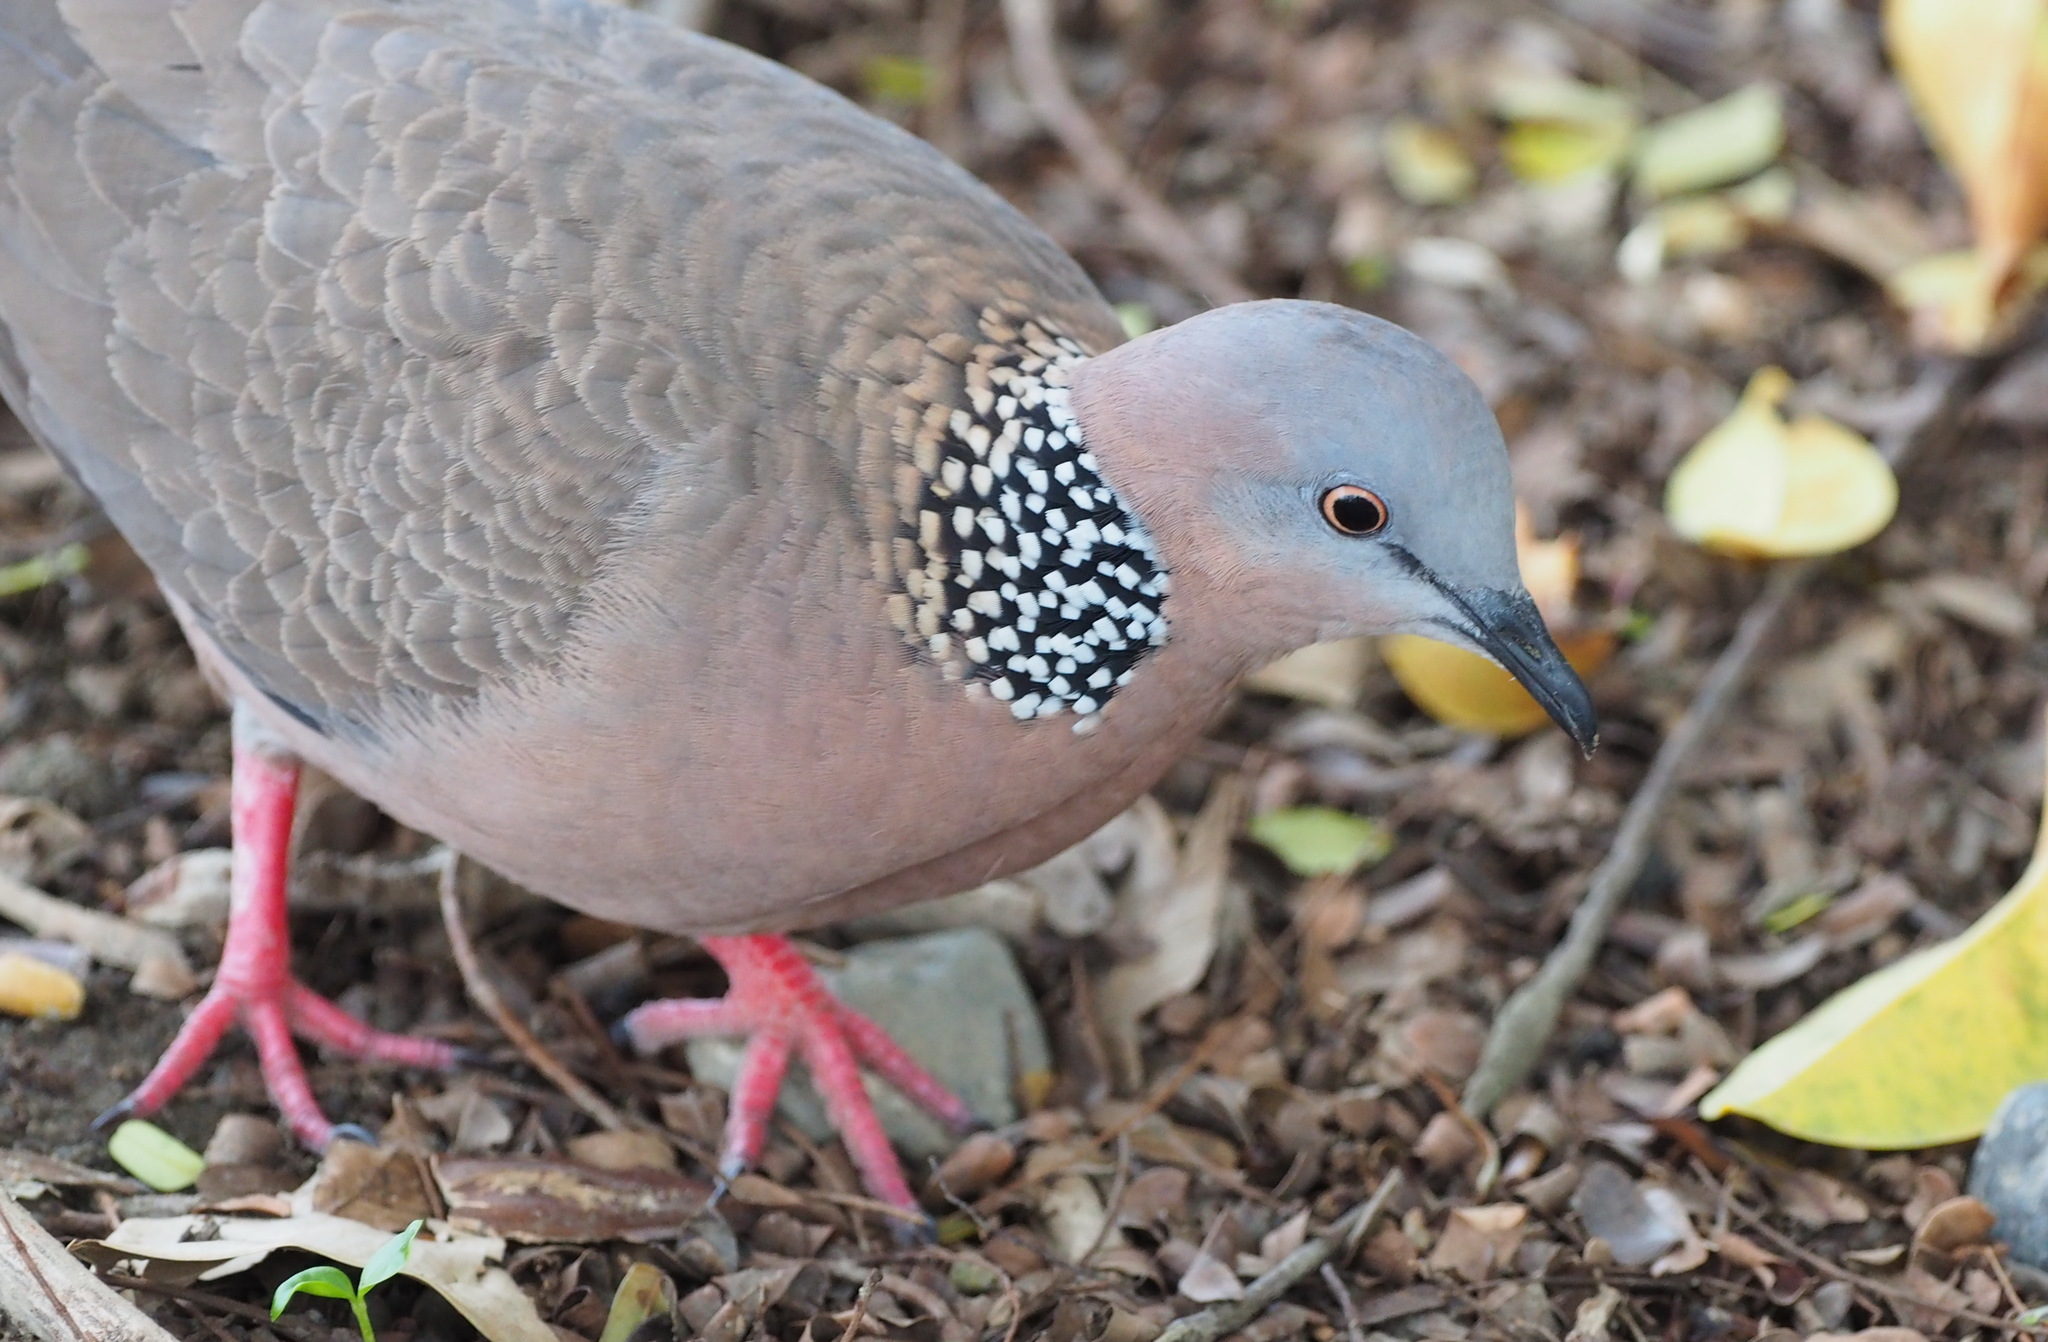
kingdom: Animalia
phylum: Chordata
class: Aves
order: Columbiformes
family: Columbidae
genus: Spilopelia
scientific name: Spilopelia chinensis
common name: Spotted dove
